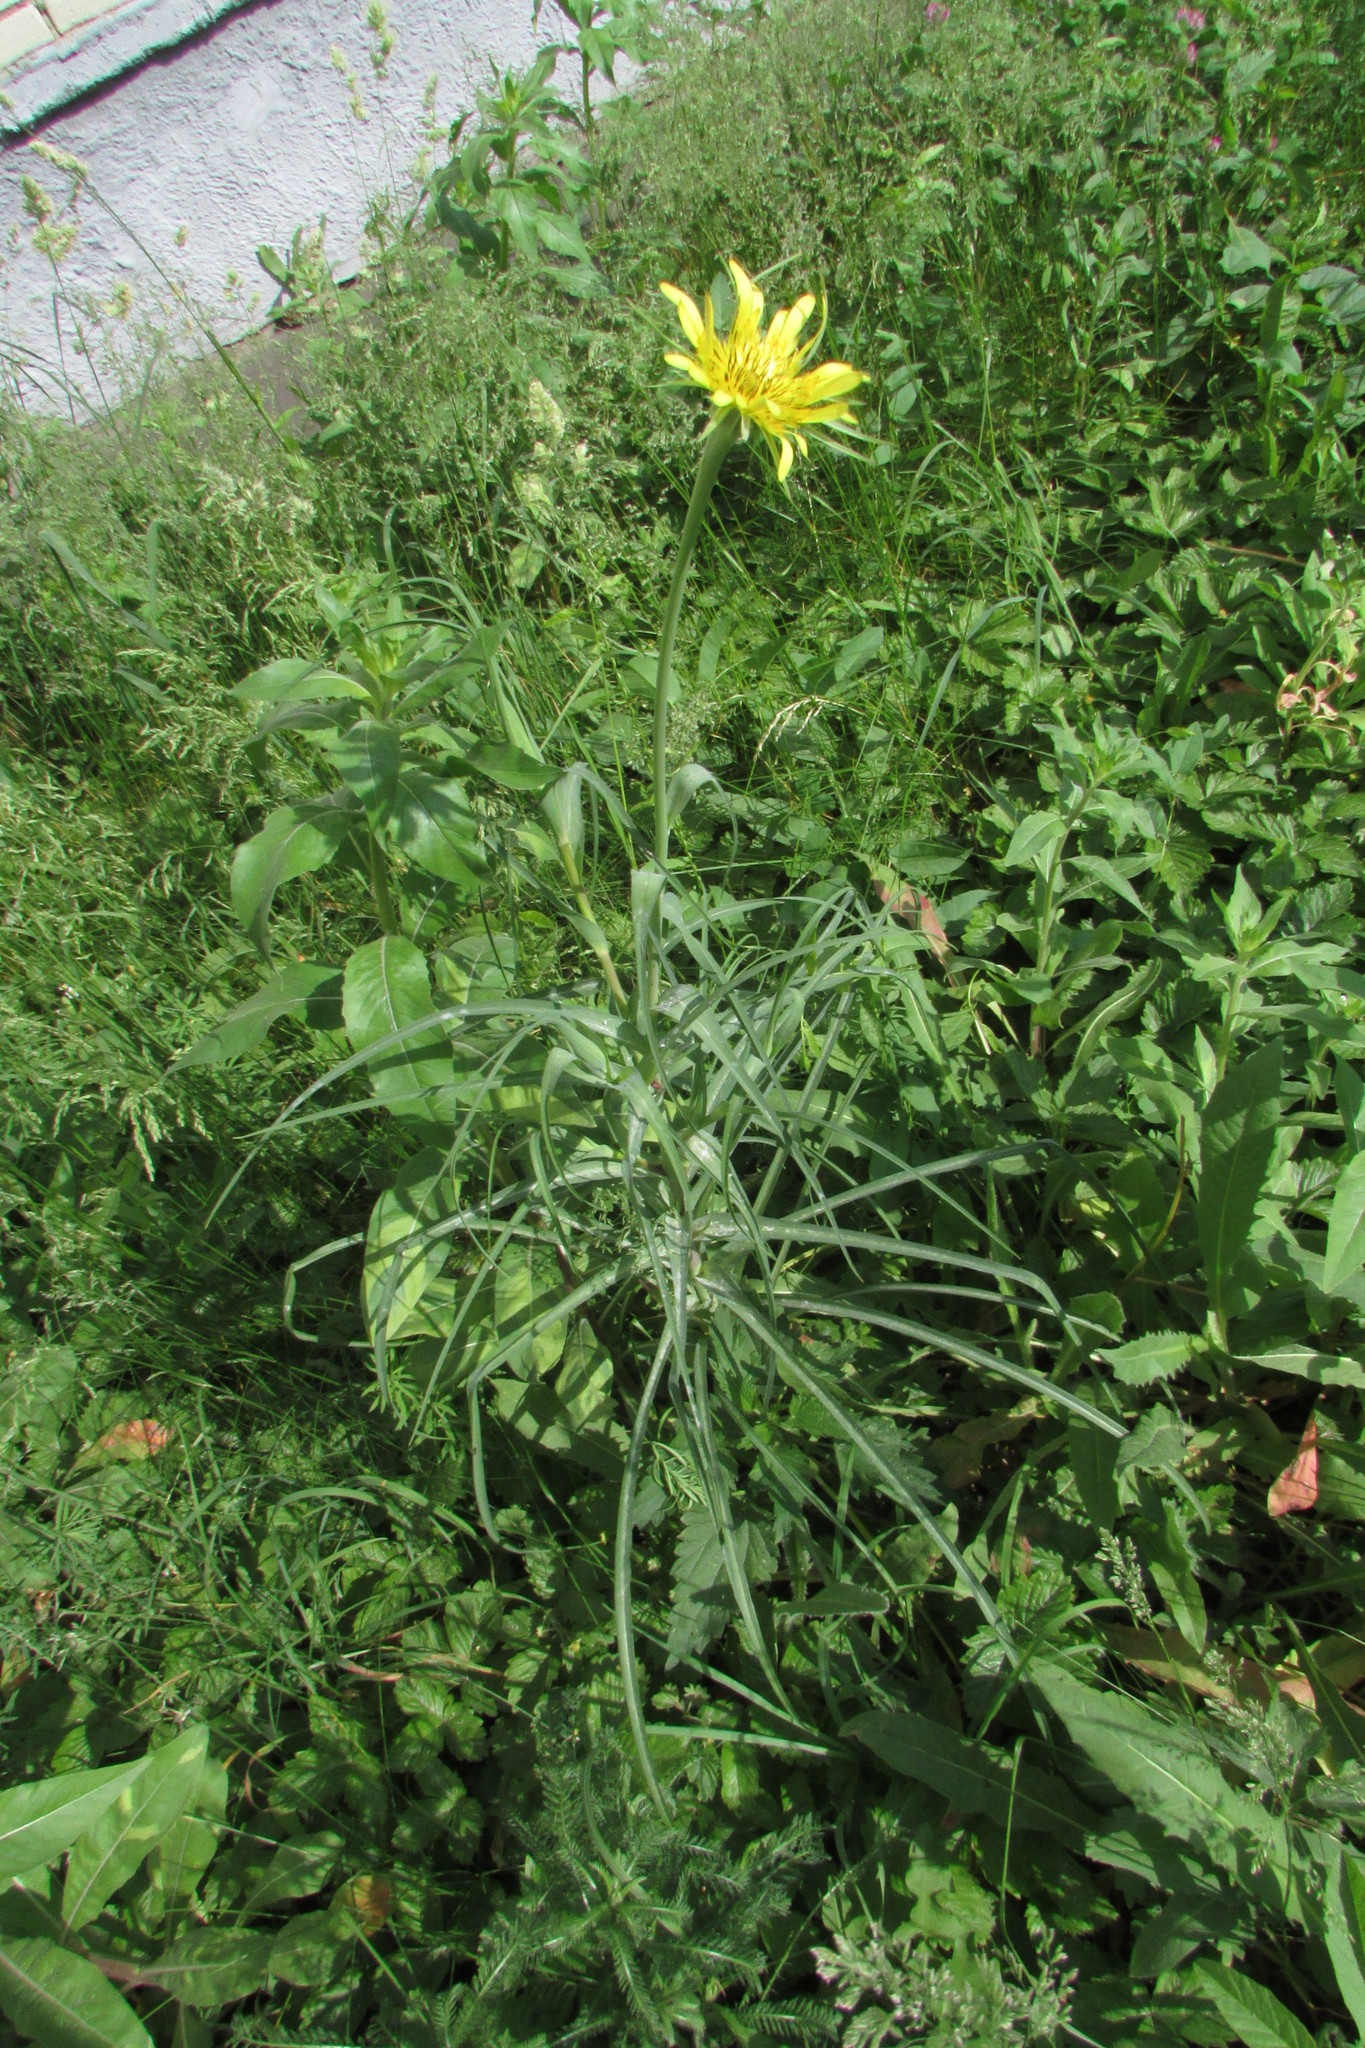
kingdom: Plantae
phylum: Tracheophyta
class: Magnoliopsida
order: Asterales
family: Asteraceae
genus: Tragopogon
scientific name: Tragopogon dubius
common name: Yellow salsify
